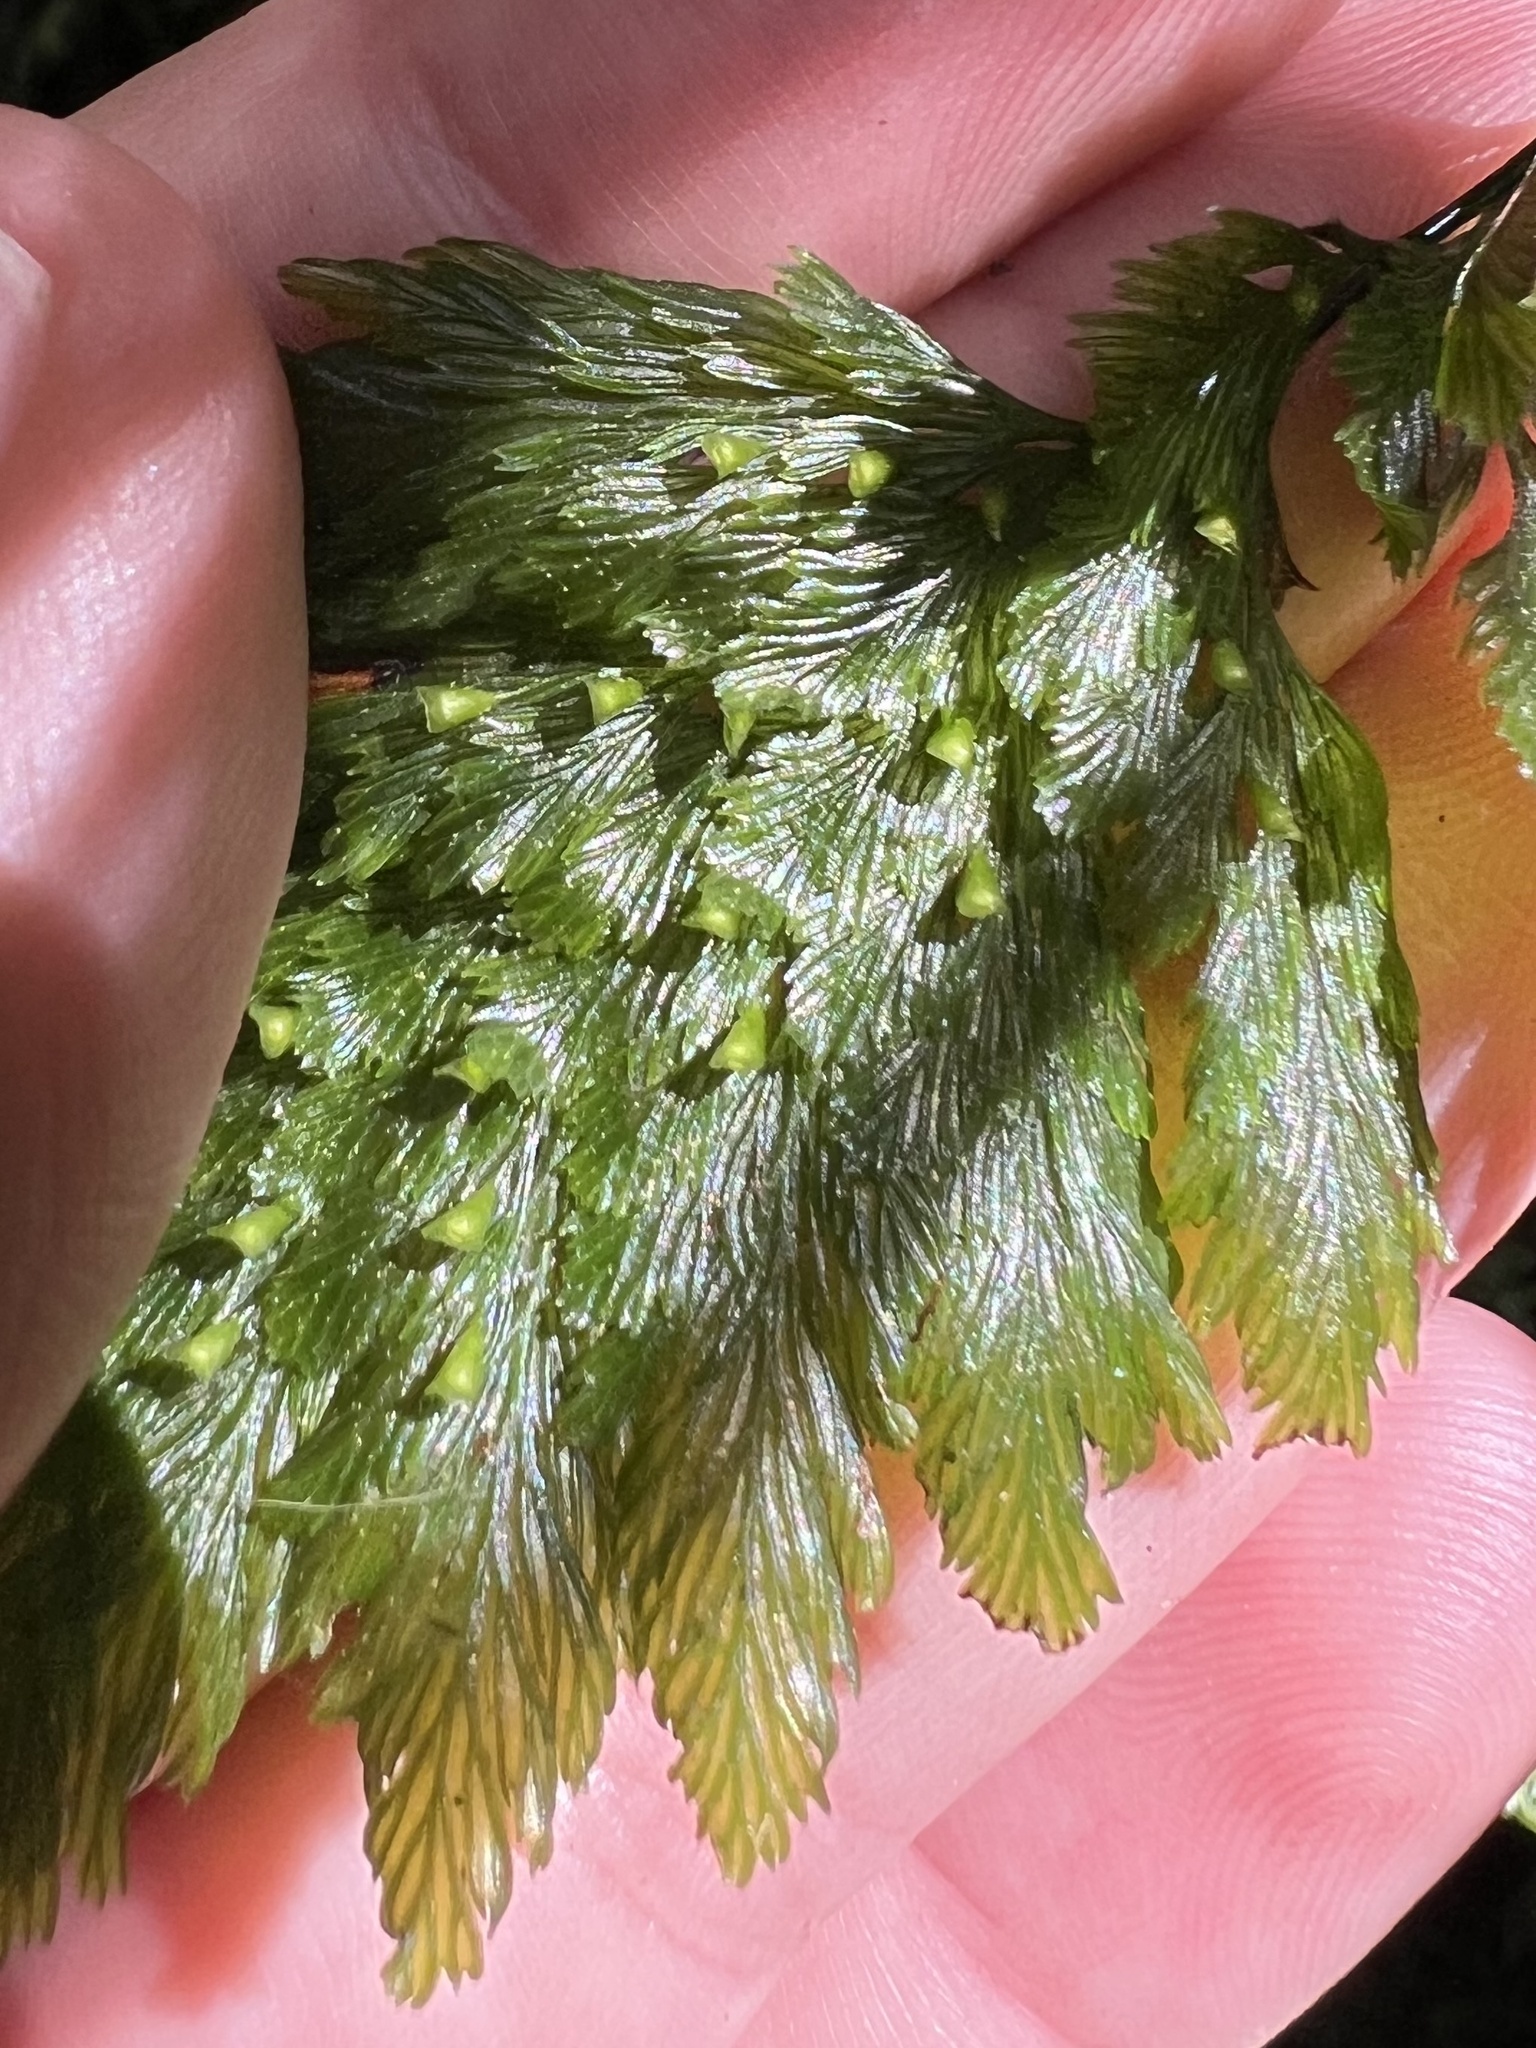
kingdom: Plantae
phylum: Tracheophyta
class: Polypodiopsida
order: Hymenophyllales
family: Hymenophyllaceae
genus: Abrodictyum
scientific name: Abrodictyum elongatum
